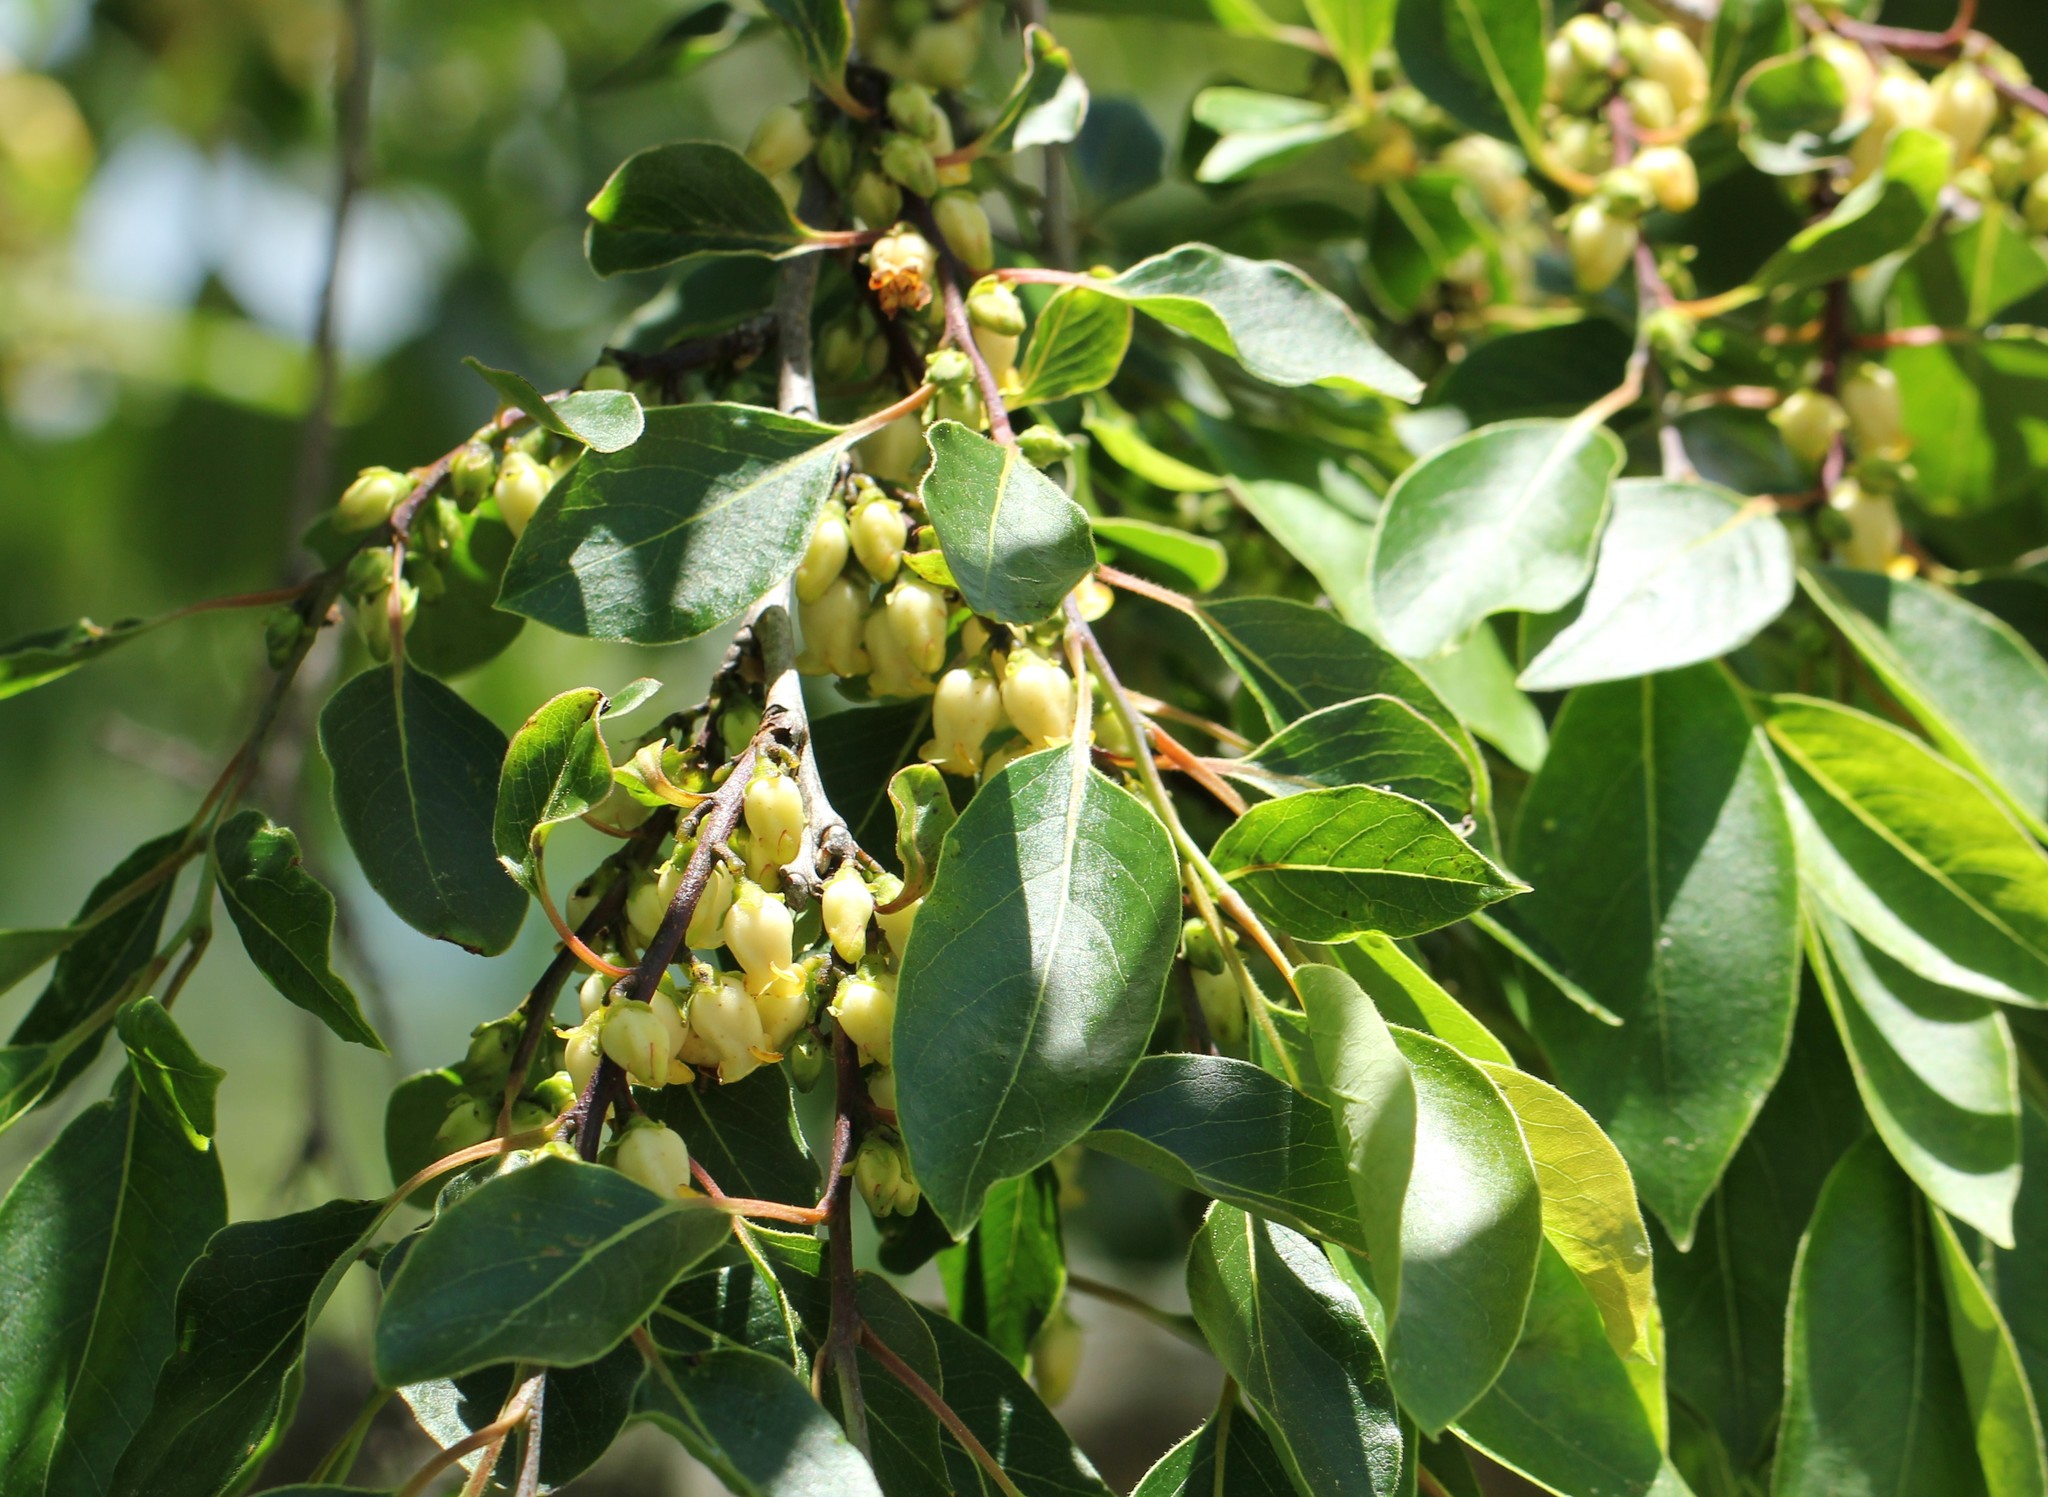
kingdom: Plantae
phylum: Tracheophyta
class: Magnoliopsida
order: Ericales
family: Ebenaceae
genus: Diospyros
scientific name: Diospyros virginiana
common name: Persimmon
